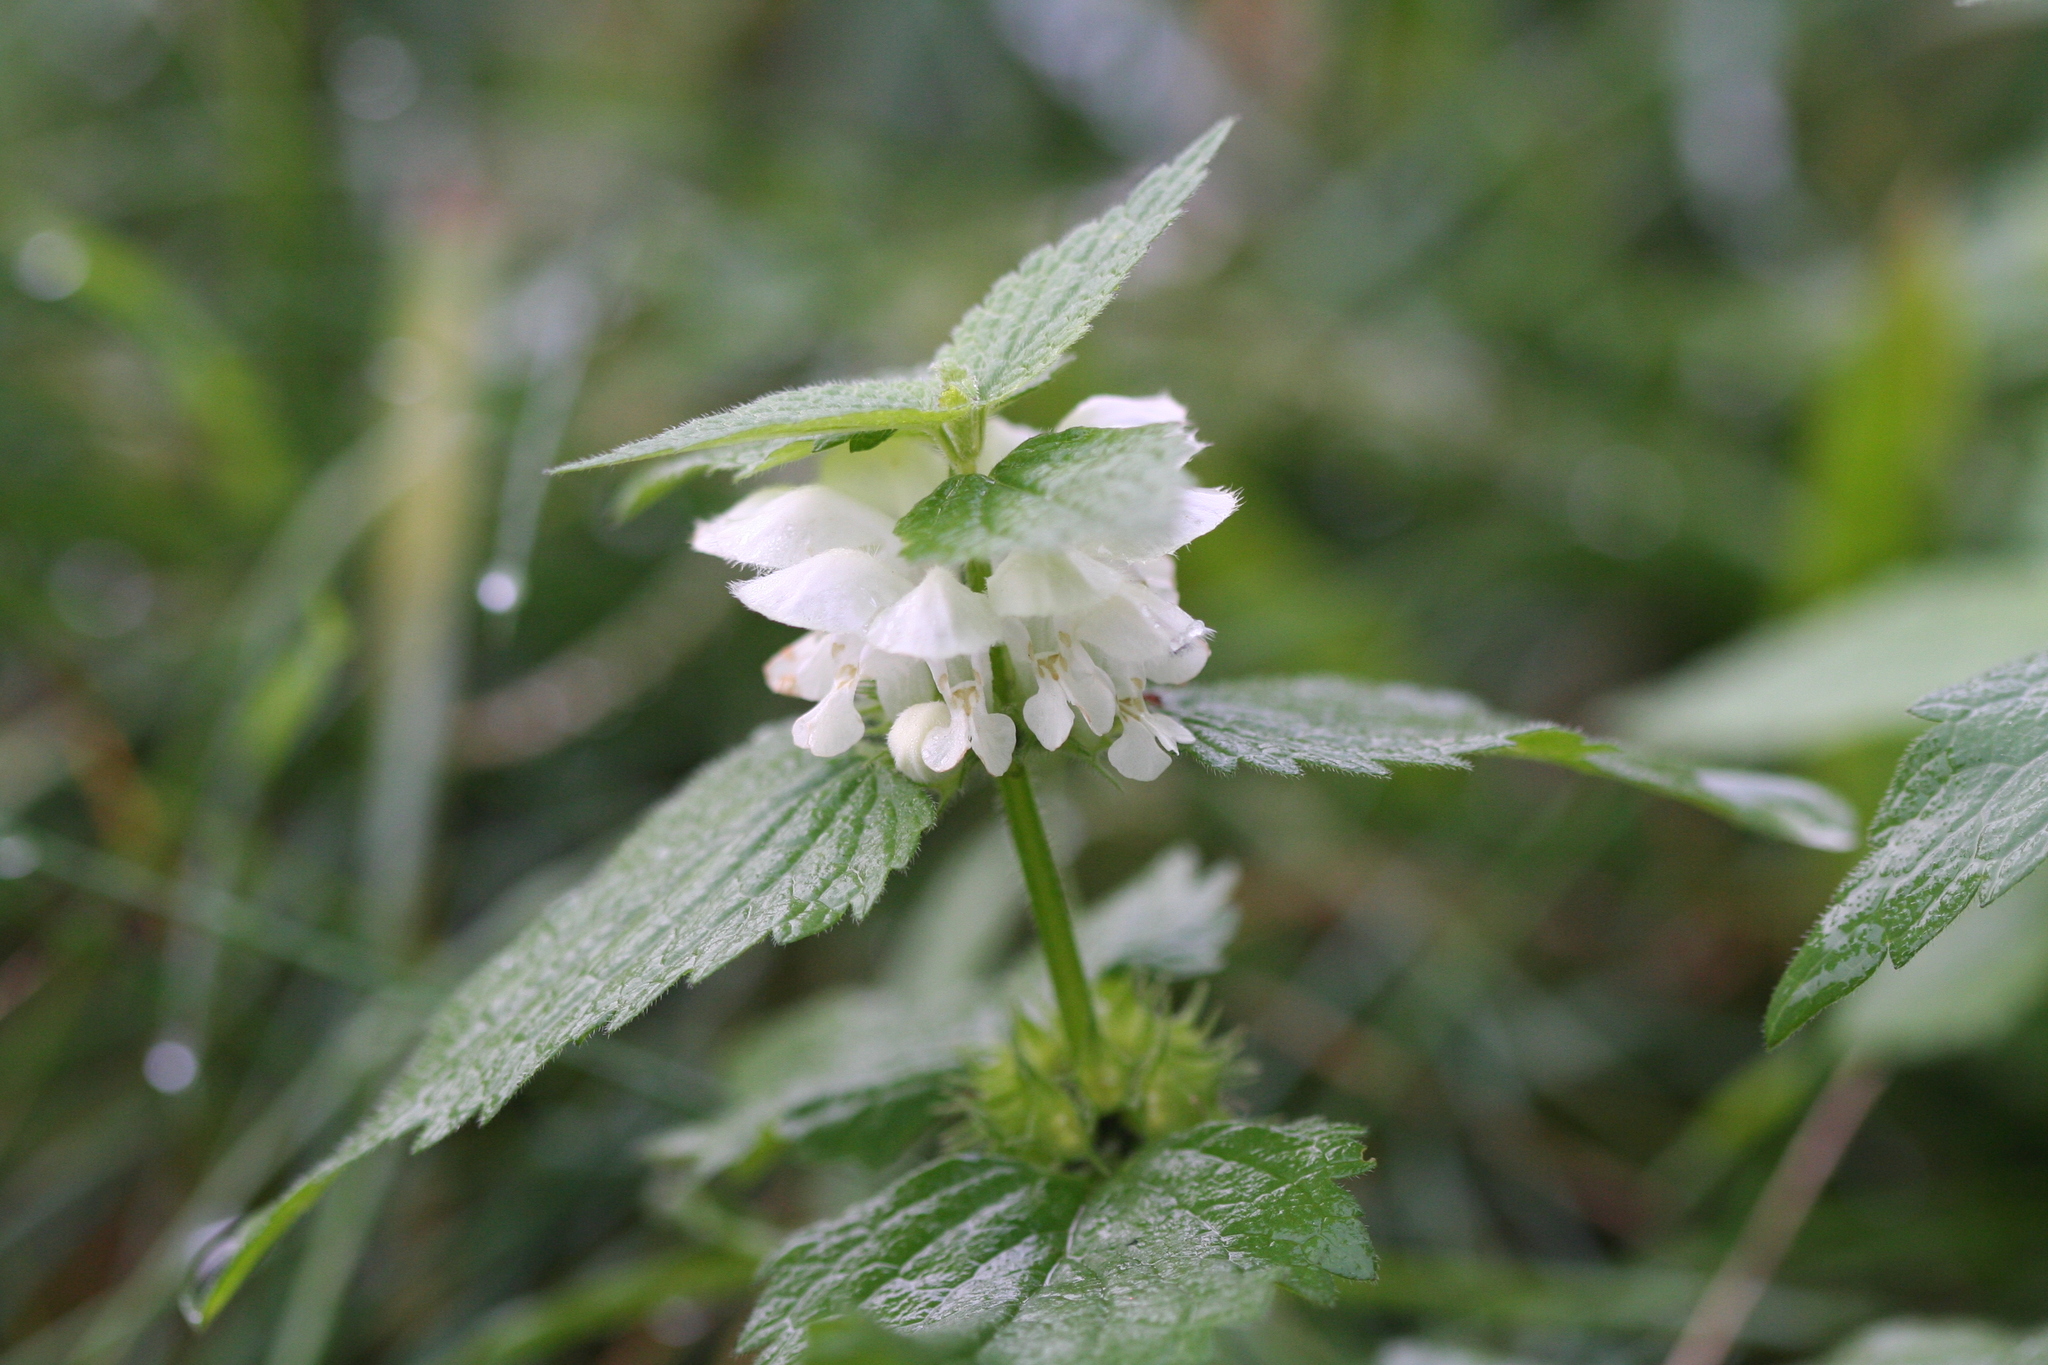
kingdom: Plantae
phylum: Tracheophyta
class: Magnoliopsida
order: Lamiales
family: Lamiaceae
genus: Lamium
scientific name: Lamium album
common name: White dead-nettle
